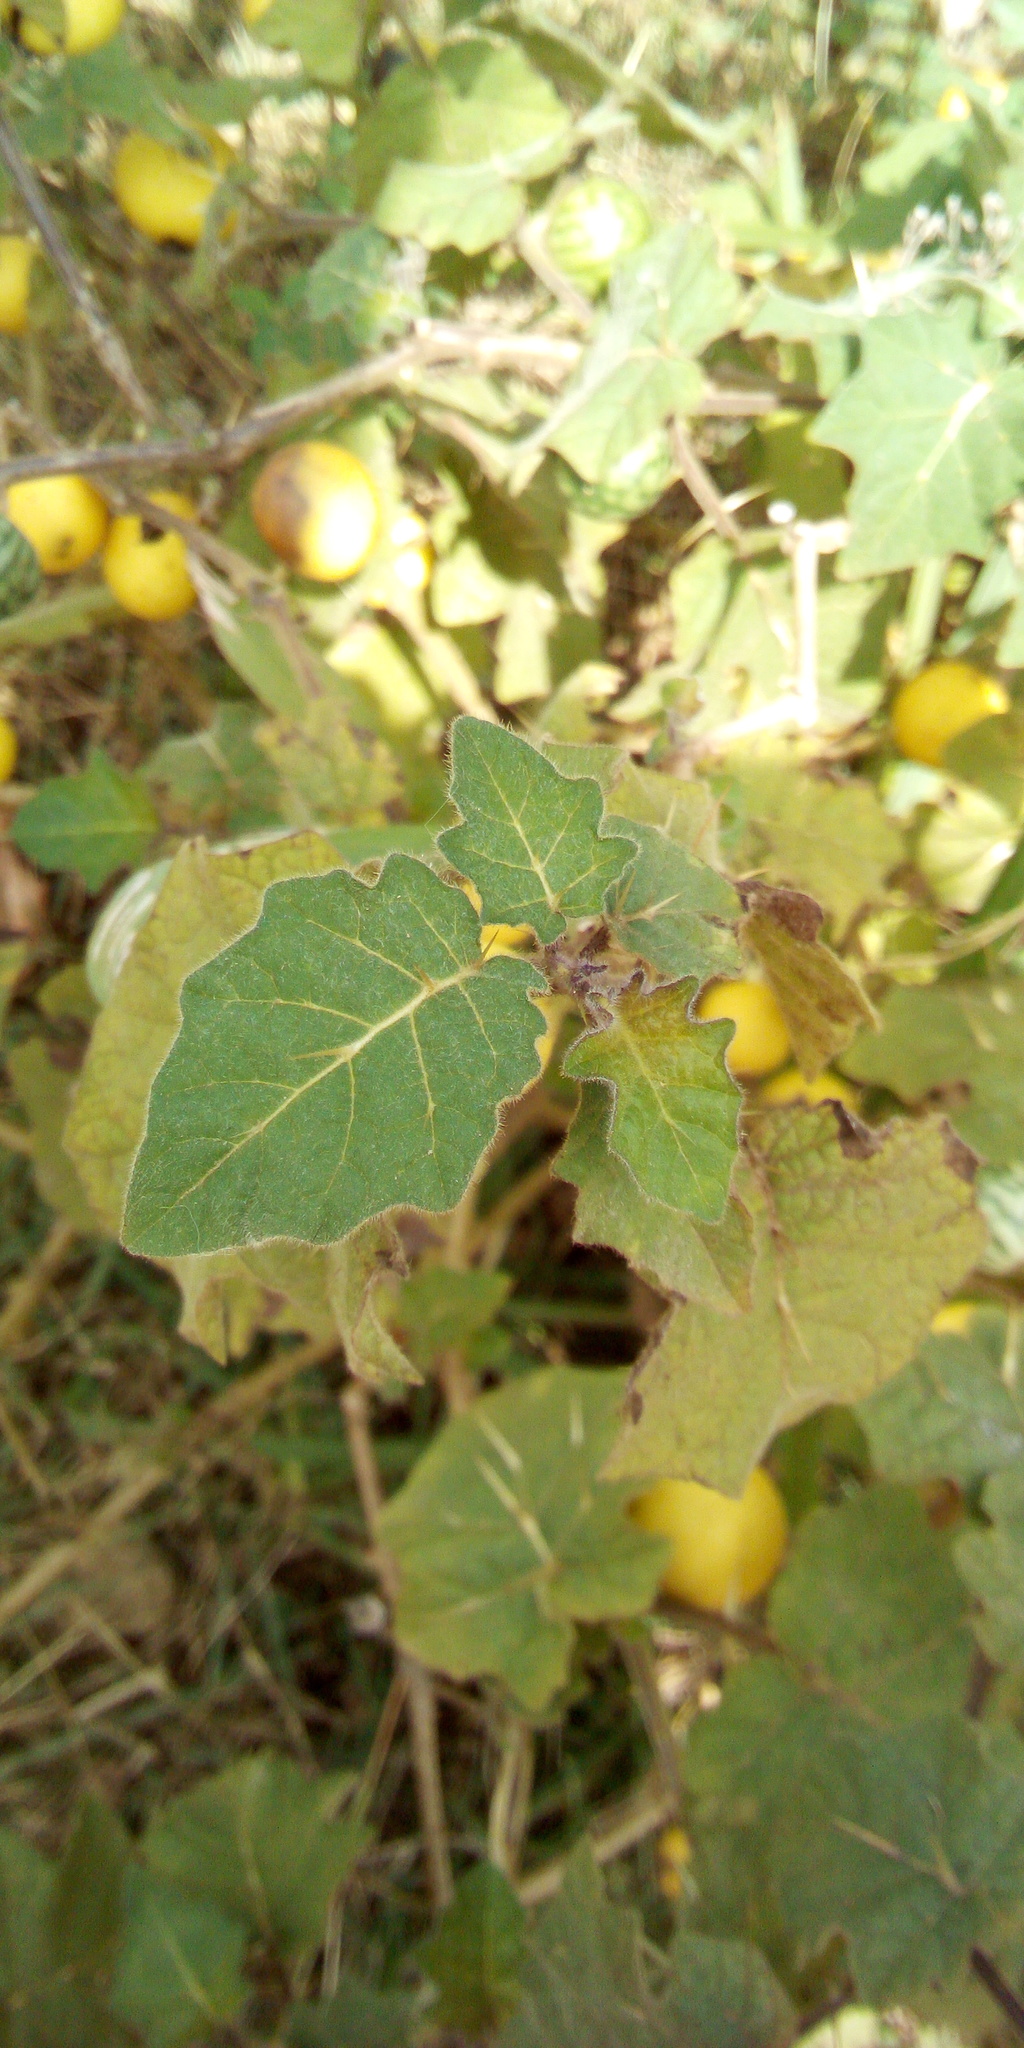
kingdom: Plantae
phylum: Tracheophyta
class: Magnoliopsida
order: Solanales
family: Solanaceae
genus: Solanum
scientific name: Solanum viarum
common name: Tropical soda apple
